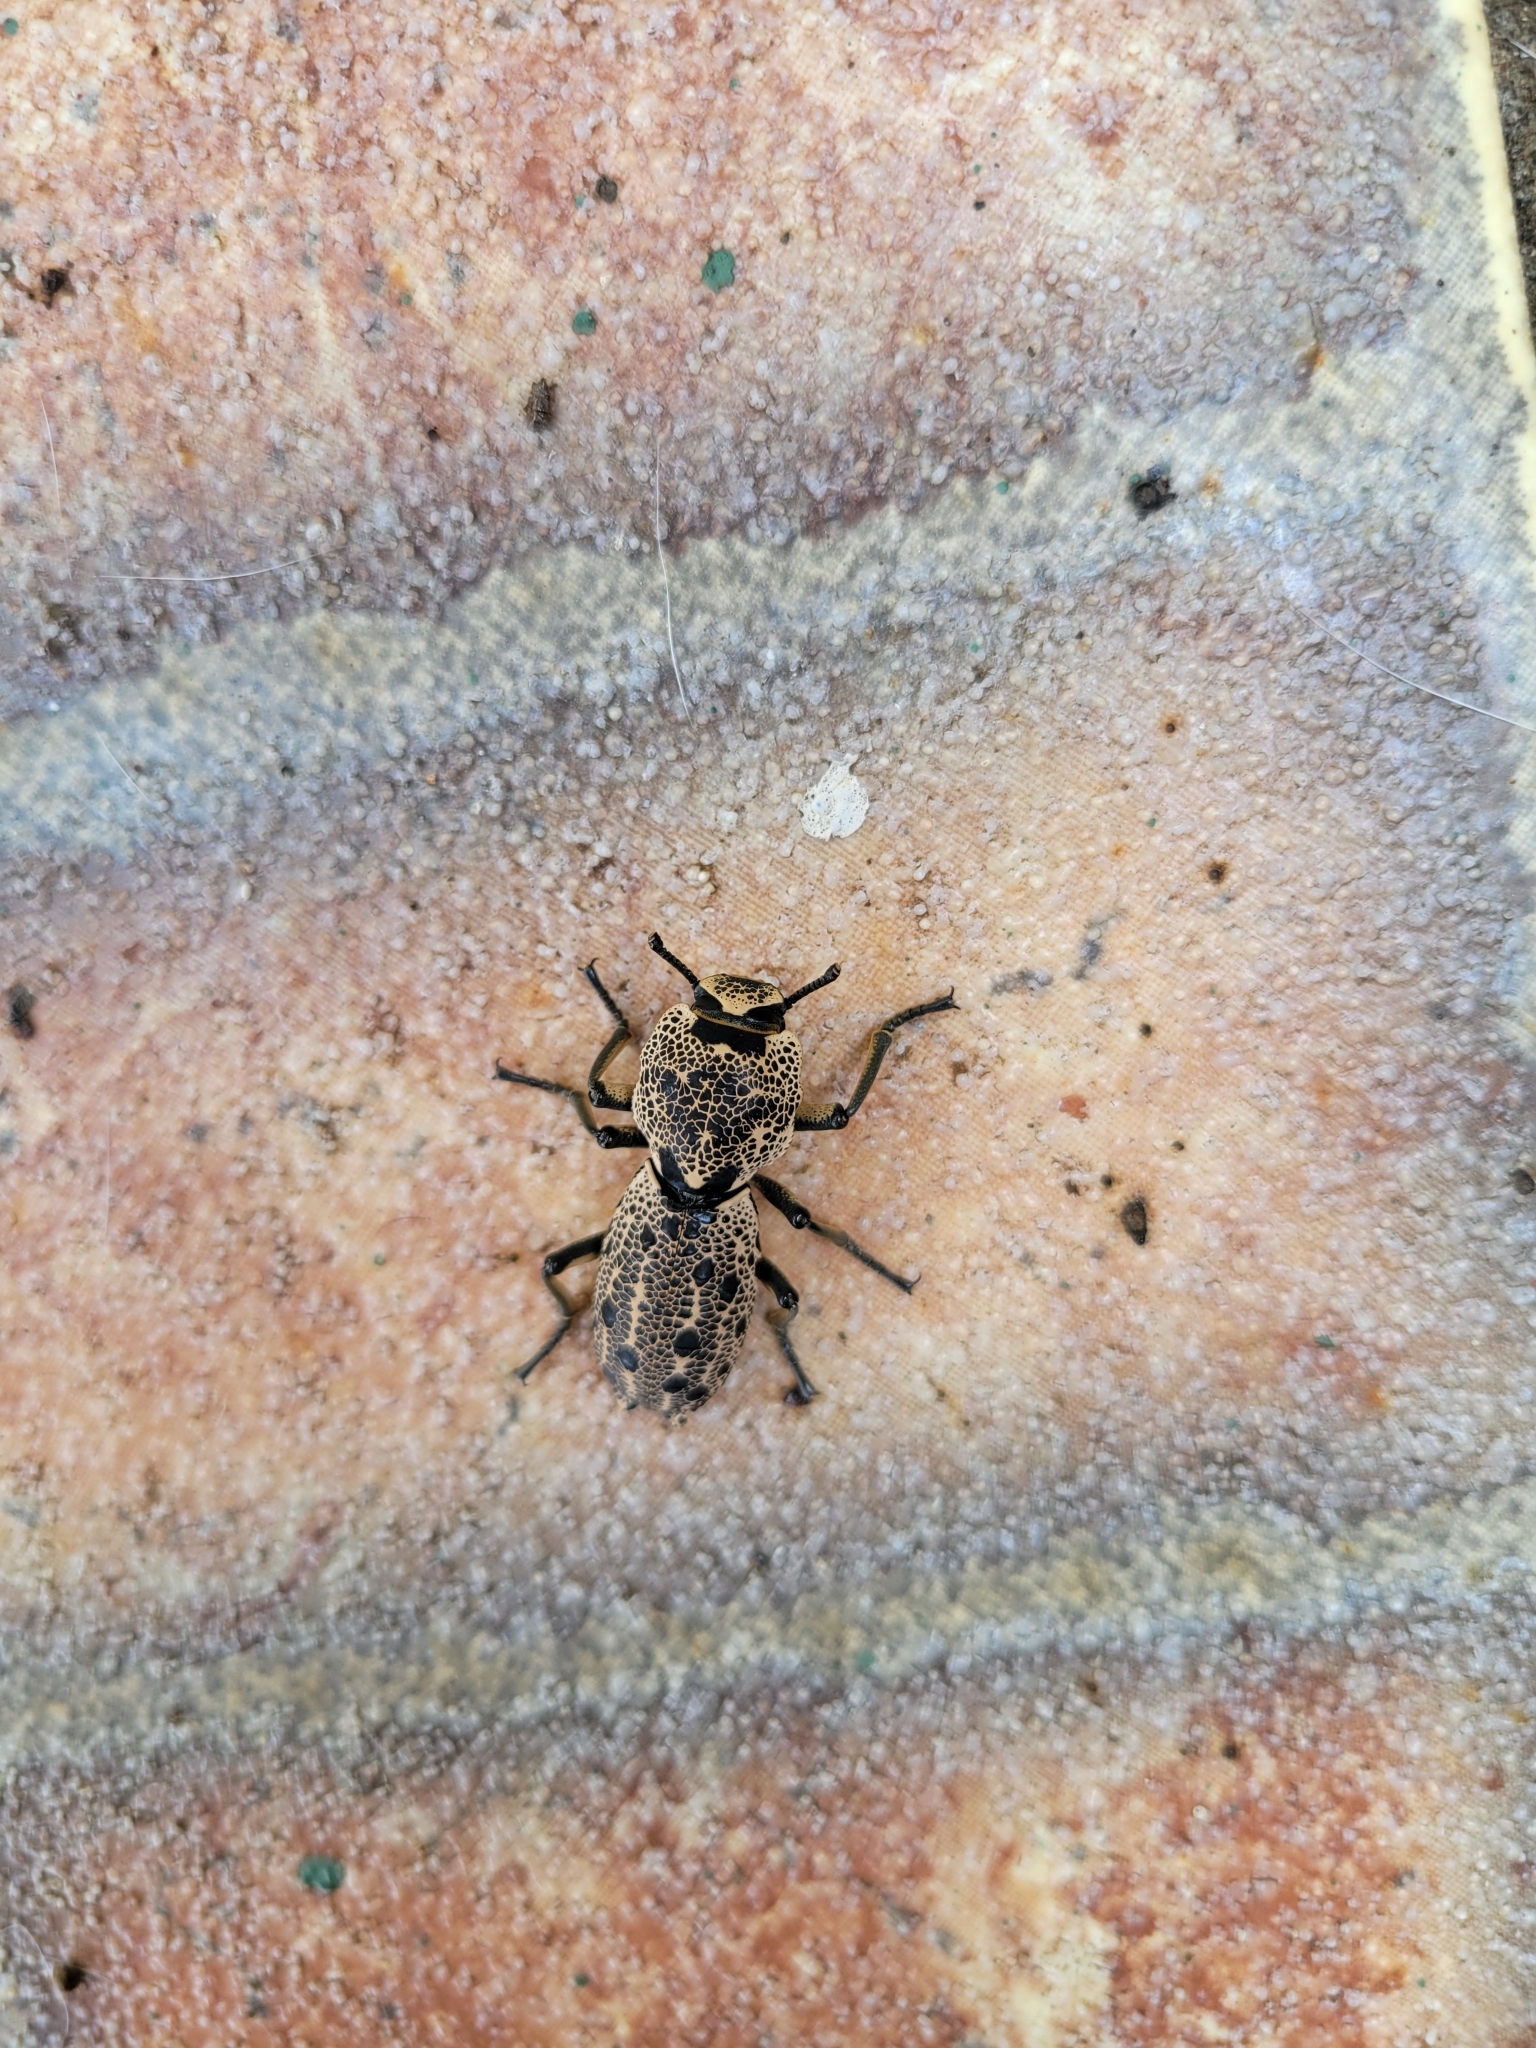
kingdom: Animalia
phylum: Arthropoda
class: Insecta
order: Coleoptera
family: Zopheridae
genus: Zopherus
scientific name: Zopherus
